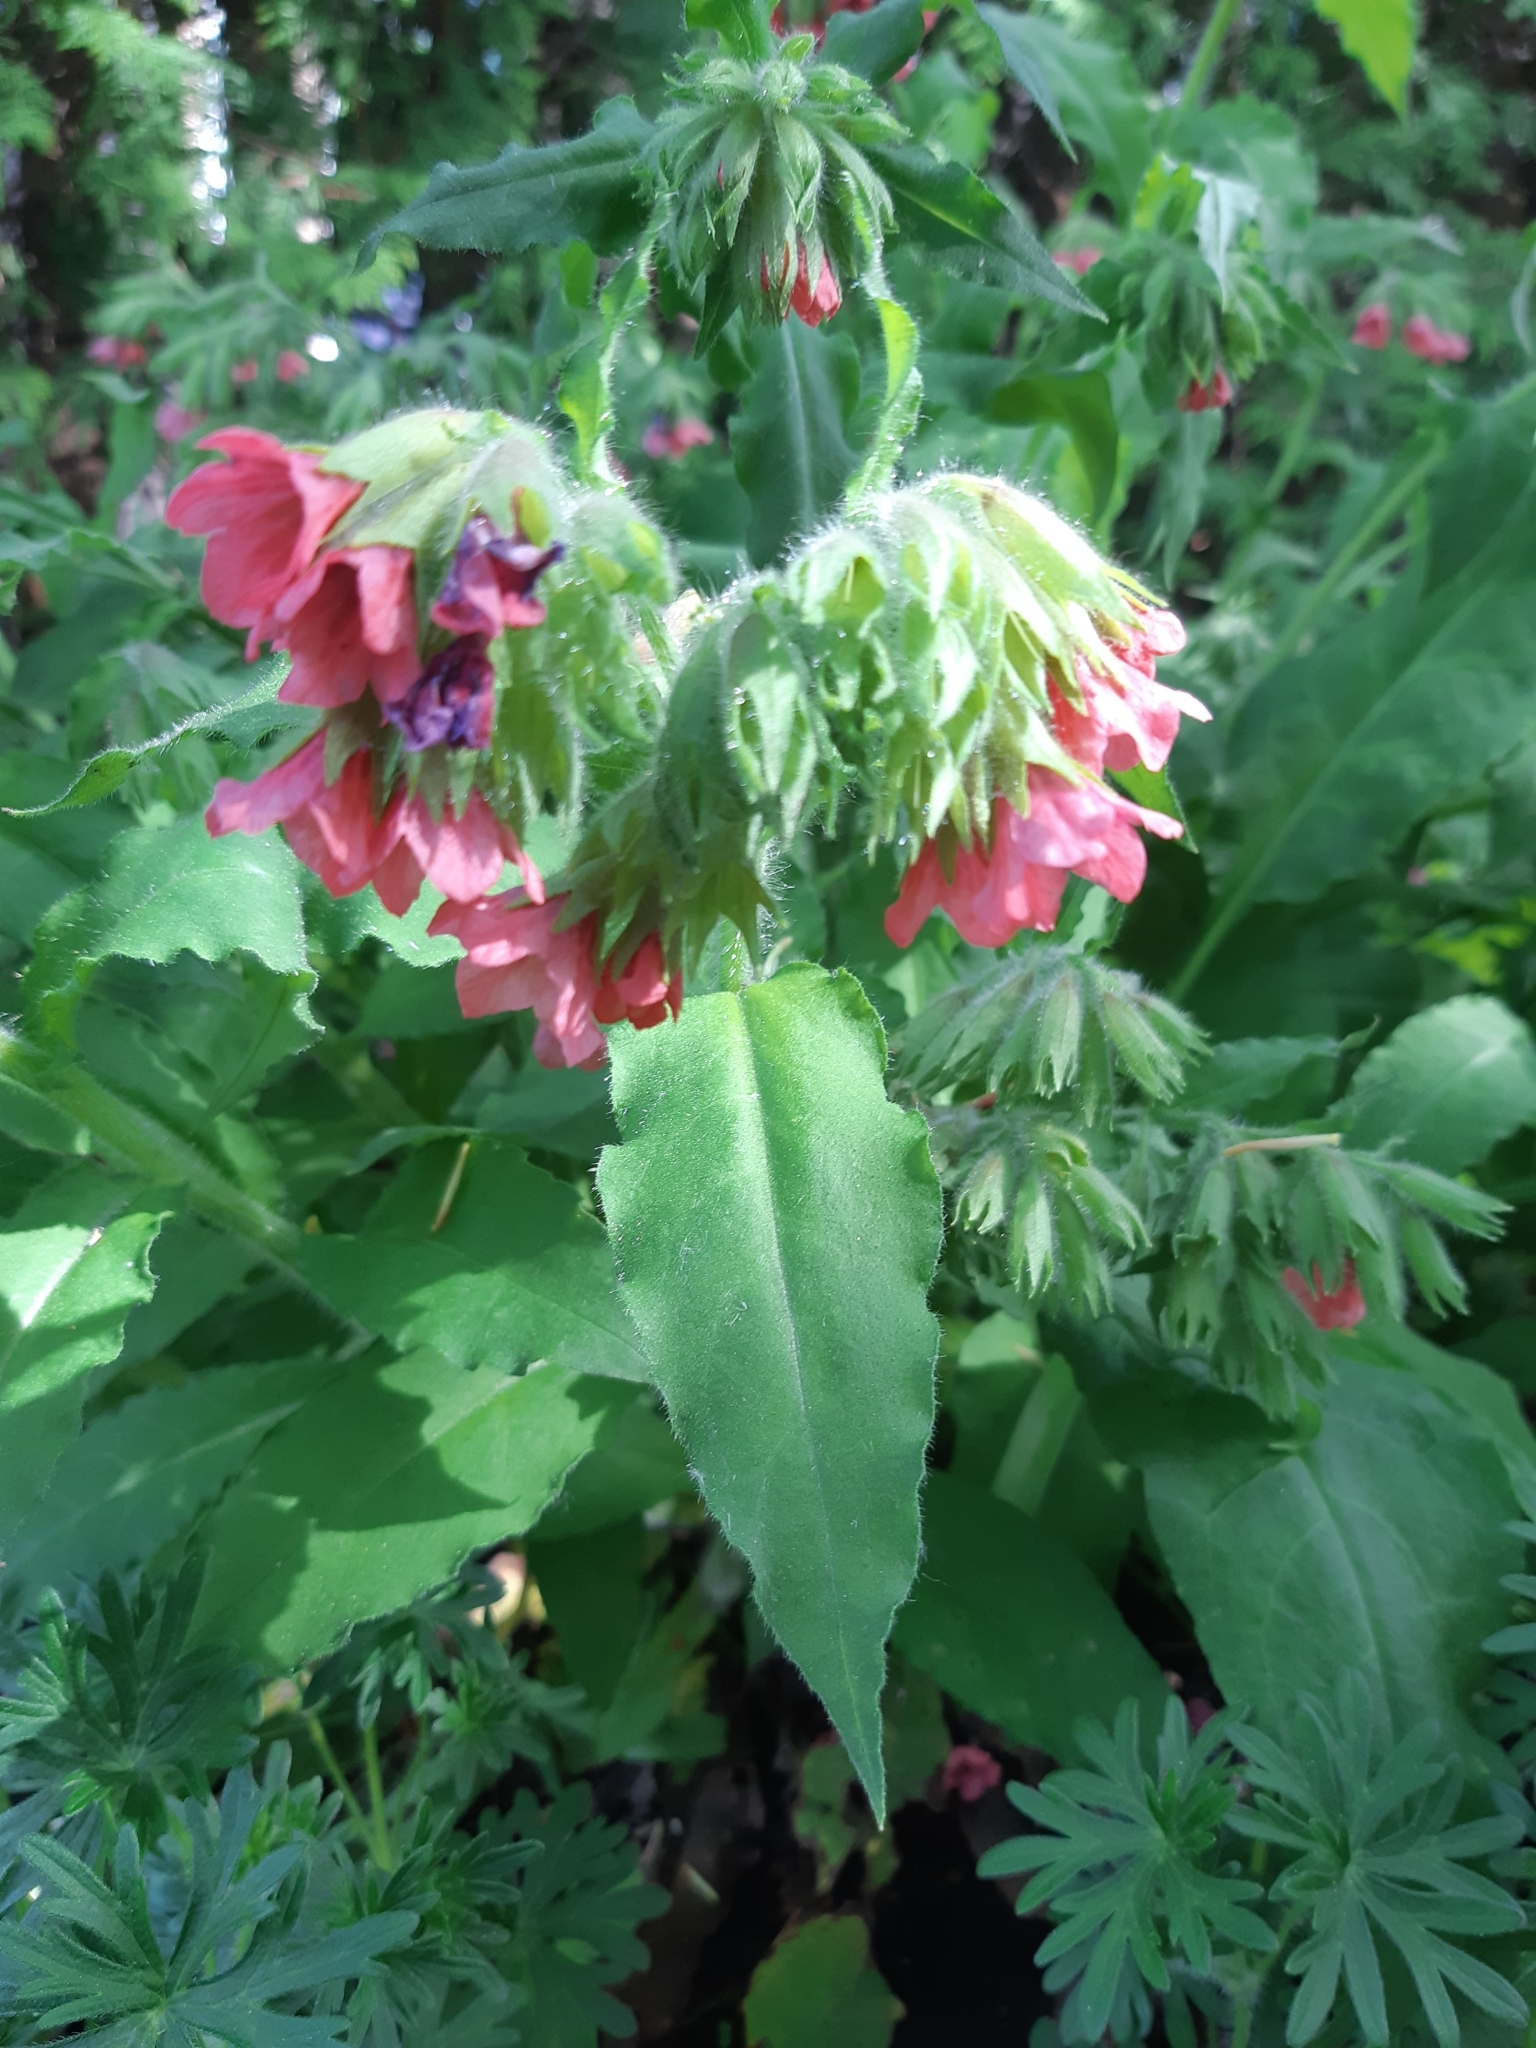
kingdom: Plantae
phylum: Tracheophyta
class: Magnoliopsida
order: Boraginales
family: Boraginaceae
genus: Cynoglossum
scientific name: Cynoglossum officinale
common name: Hound's-tongue
